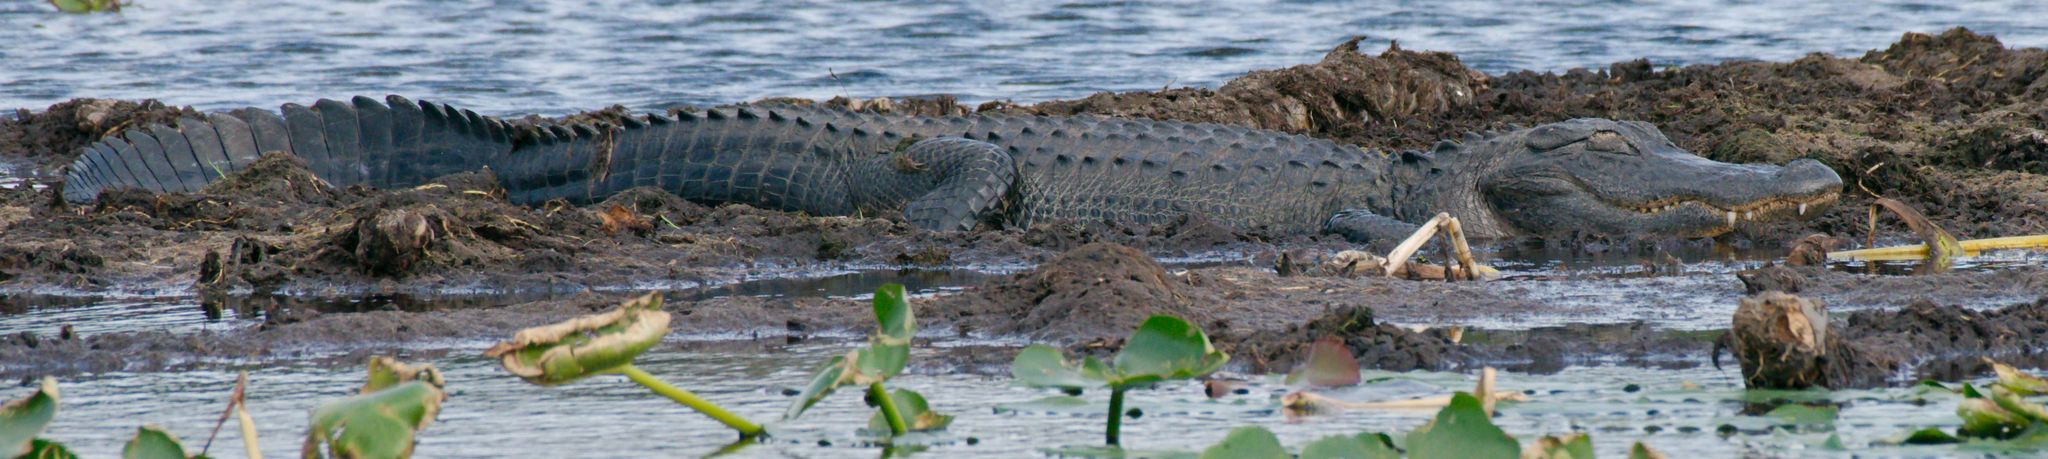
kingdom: Animalia
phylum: Chordata
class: Crocodylia
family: Alligatoridae
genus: Alligator
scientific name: Alligator mississippiensis
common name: American alligator
